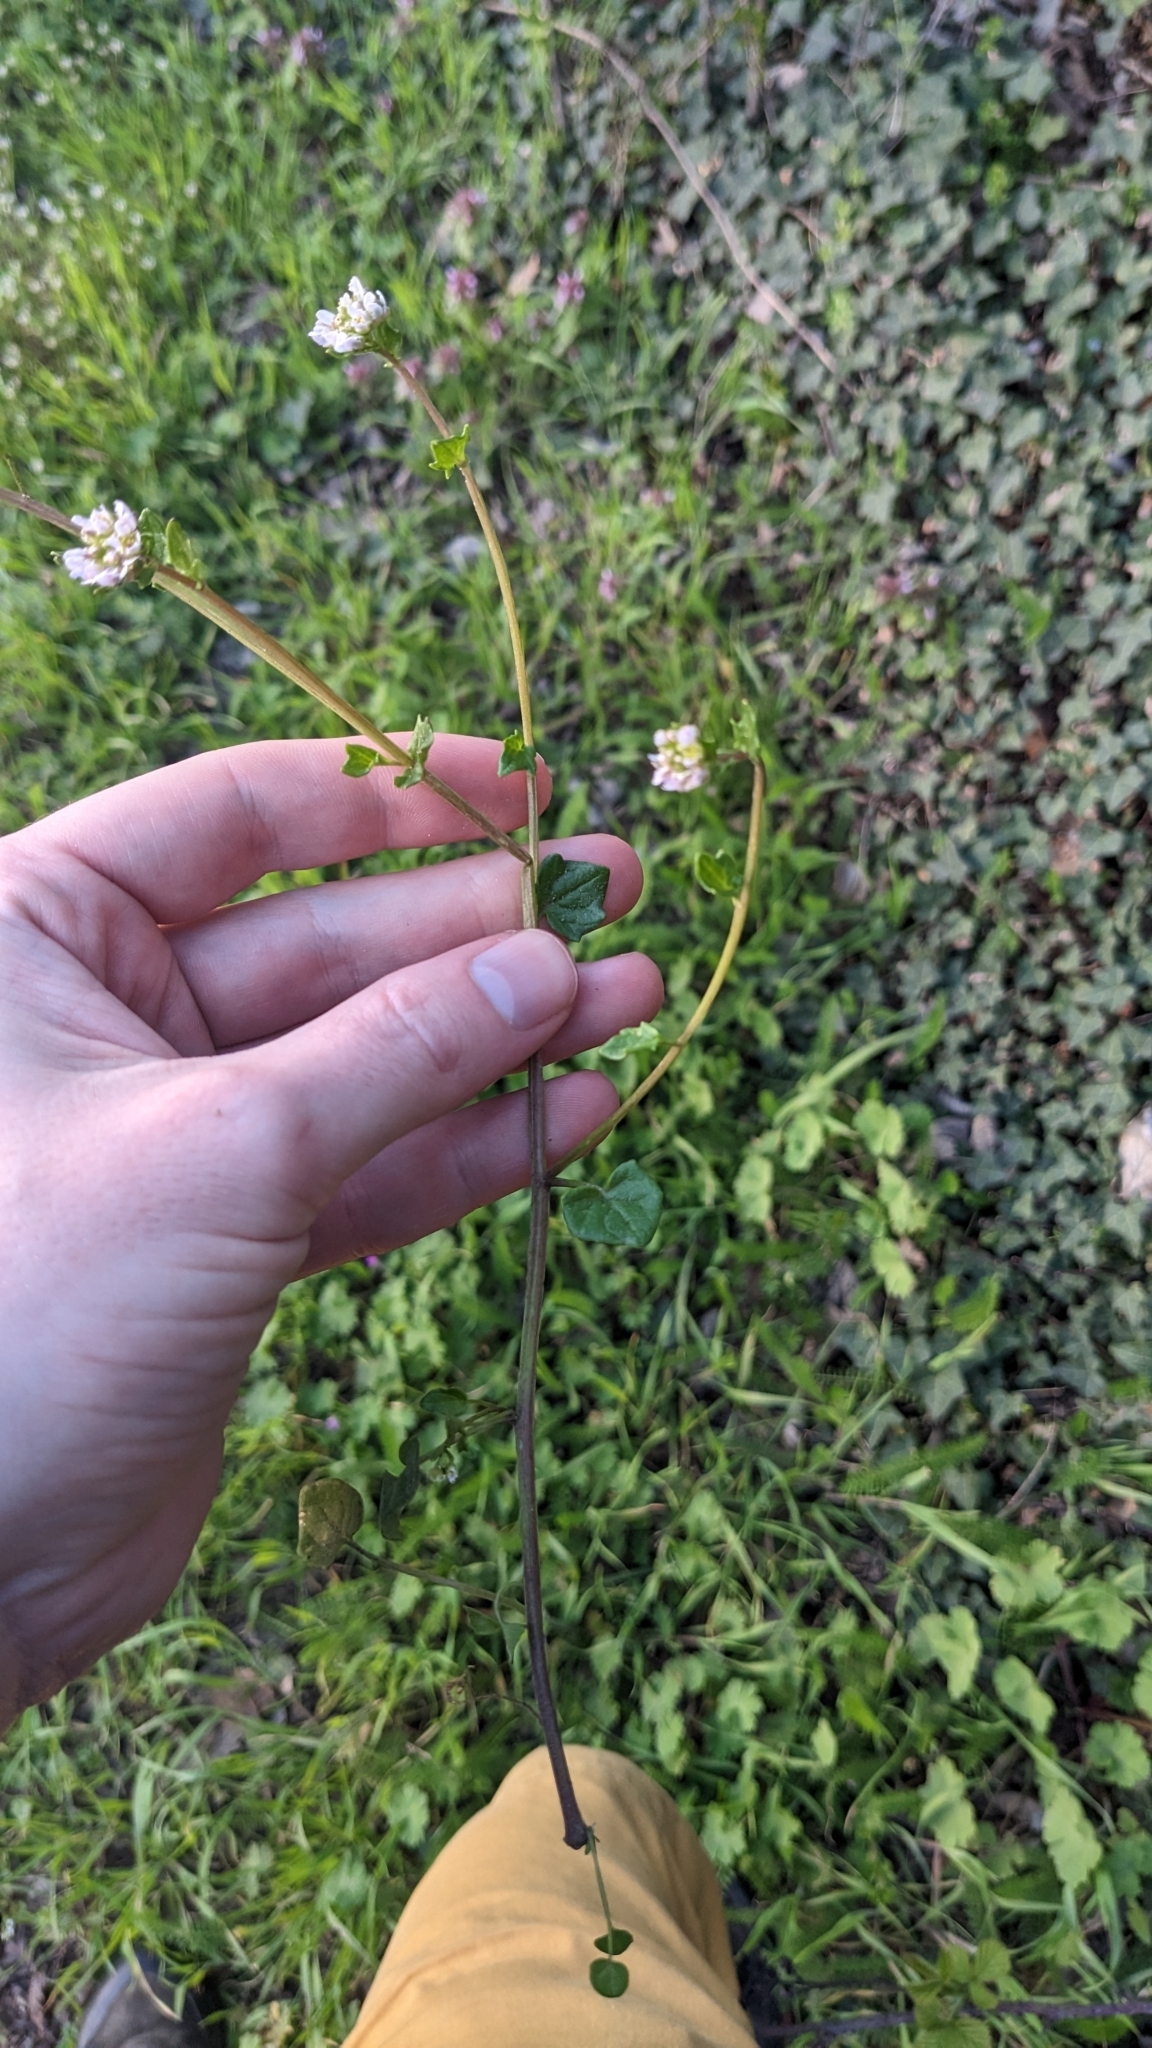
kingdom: Plantae
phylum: Tracheophyta
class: Magnoliopsida
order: Brassicales
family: Brassicaceae
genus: Cochlearia
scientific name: Cochlearia danica
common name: Early scurvygrass
